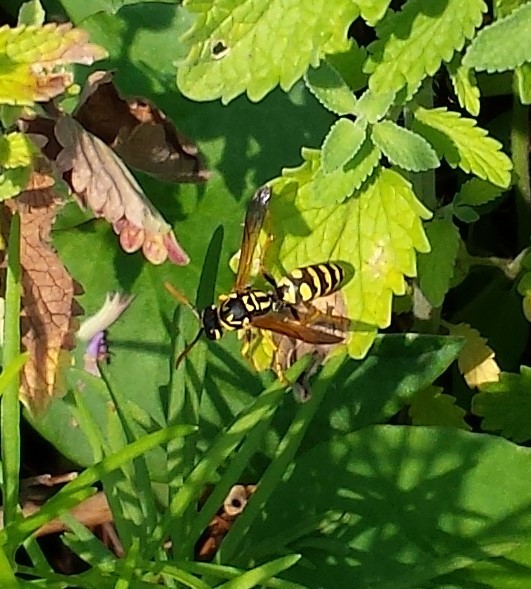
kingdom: Animalia
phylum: Arthropoda
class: Insecta
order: Hymenoptera
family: Eumenidae
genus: Polistes
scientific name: Polistes dominula
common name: Paper wasp
